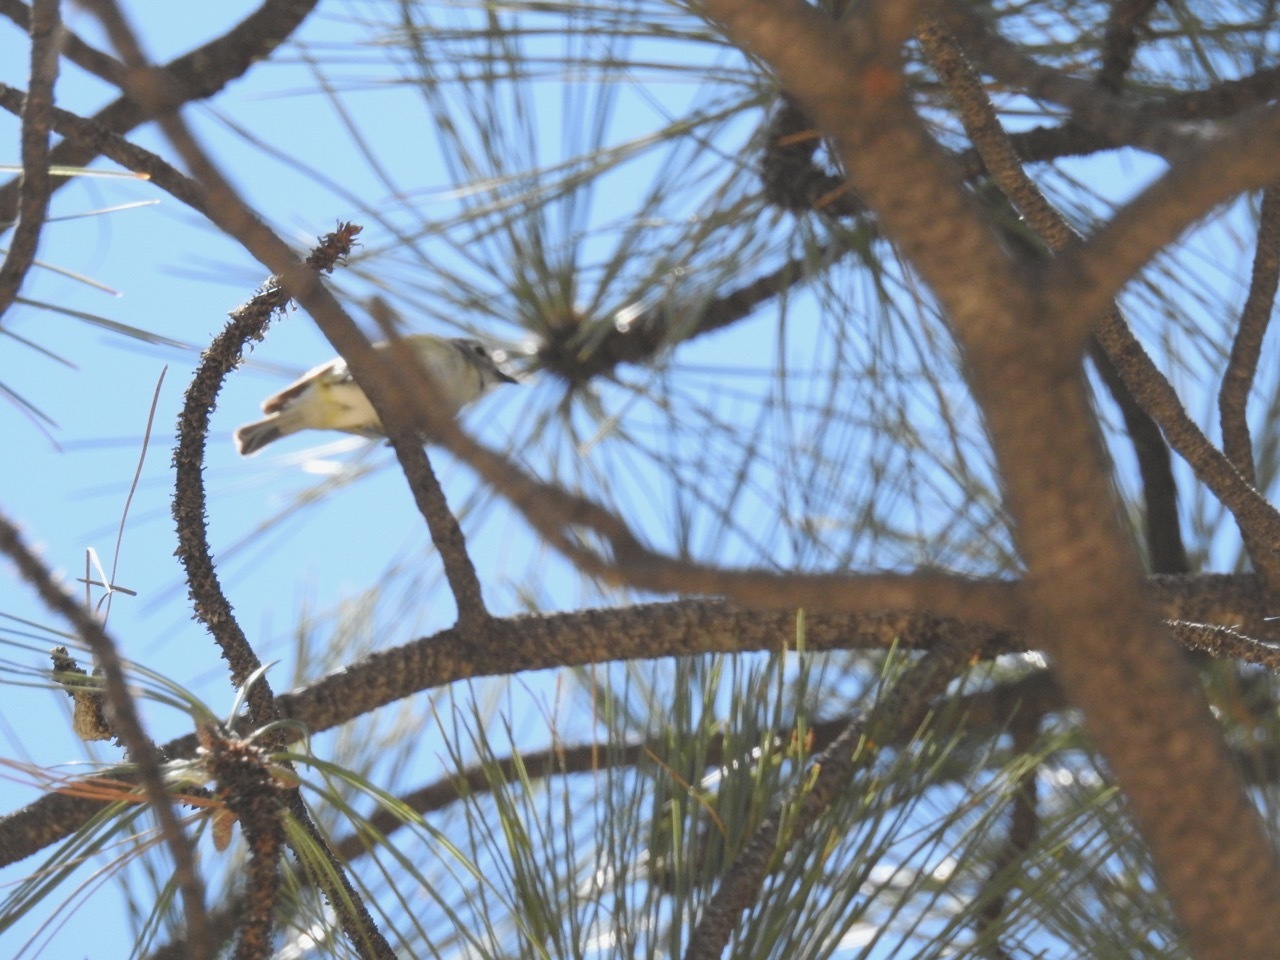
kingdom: Animalia
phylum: Chordata
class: Aves
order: Passeriformes
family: Vireonidae
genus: Vireo
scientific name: Vireo cassinii
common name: Cassin's vireo
